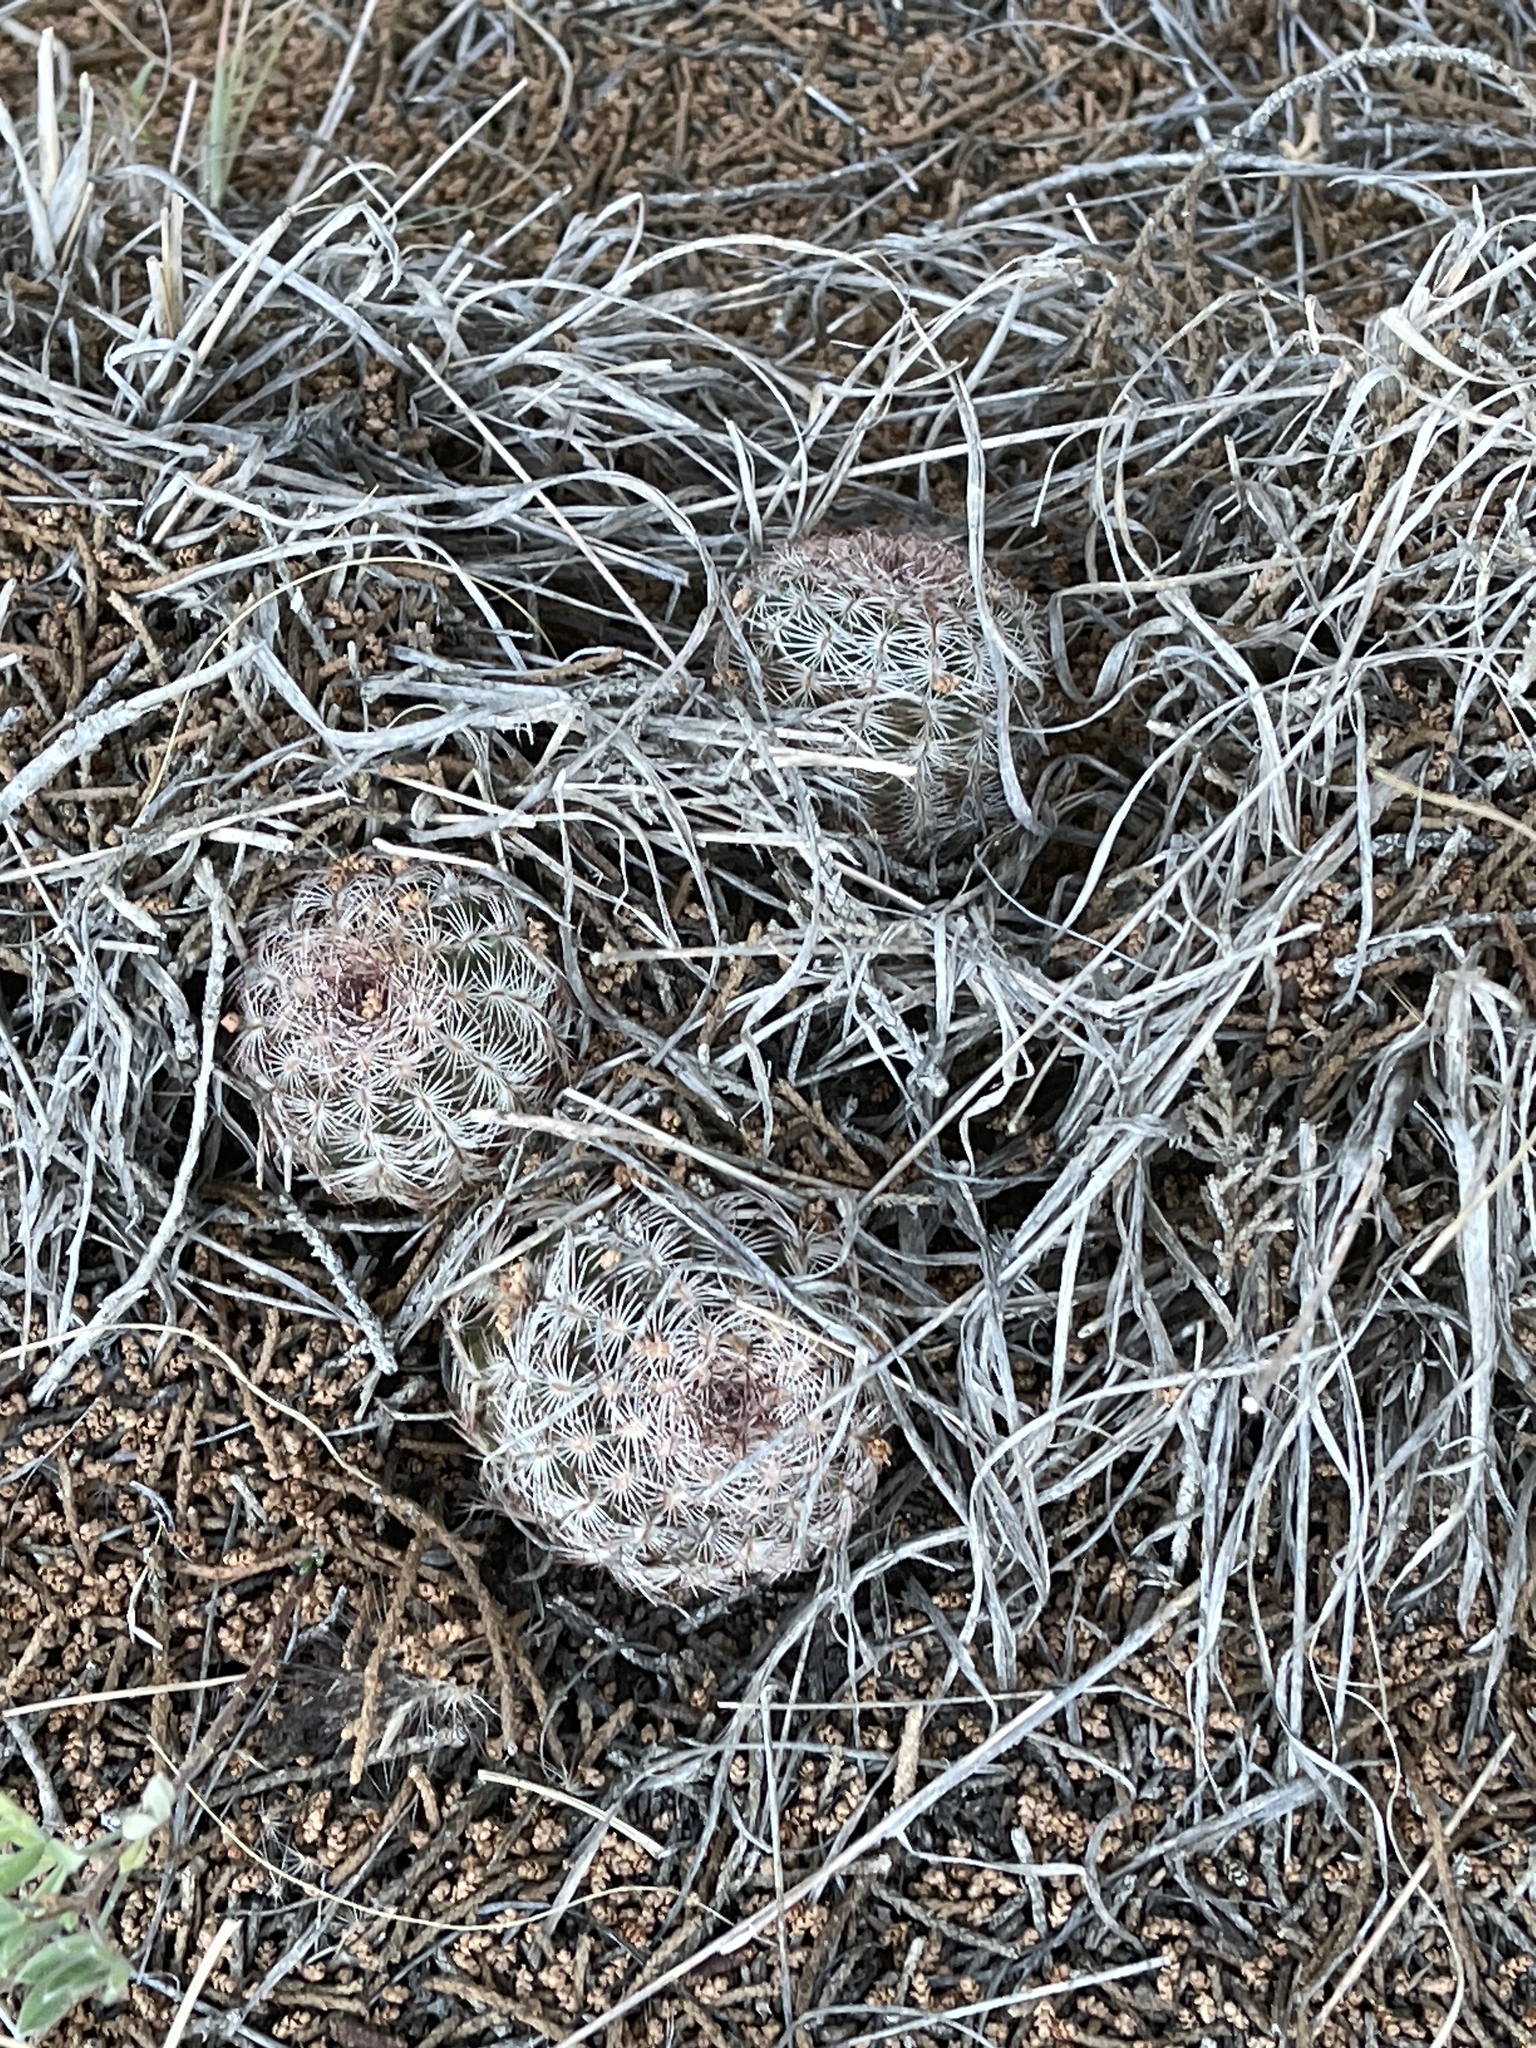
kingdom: Plantae
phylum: Tracheophyta
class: Magnoliopsida
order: Caryophyllales
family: Cactaceae
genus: Echinocereus
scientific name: Echinocereus reichenbachii
